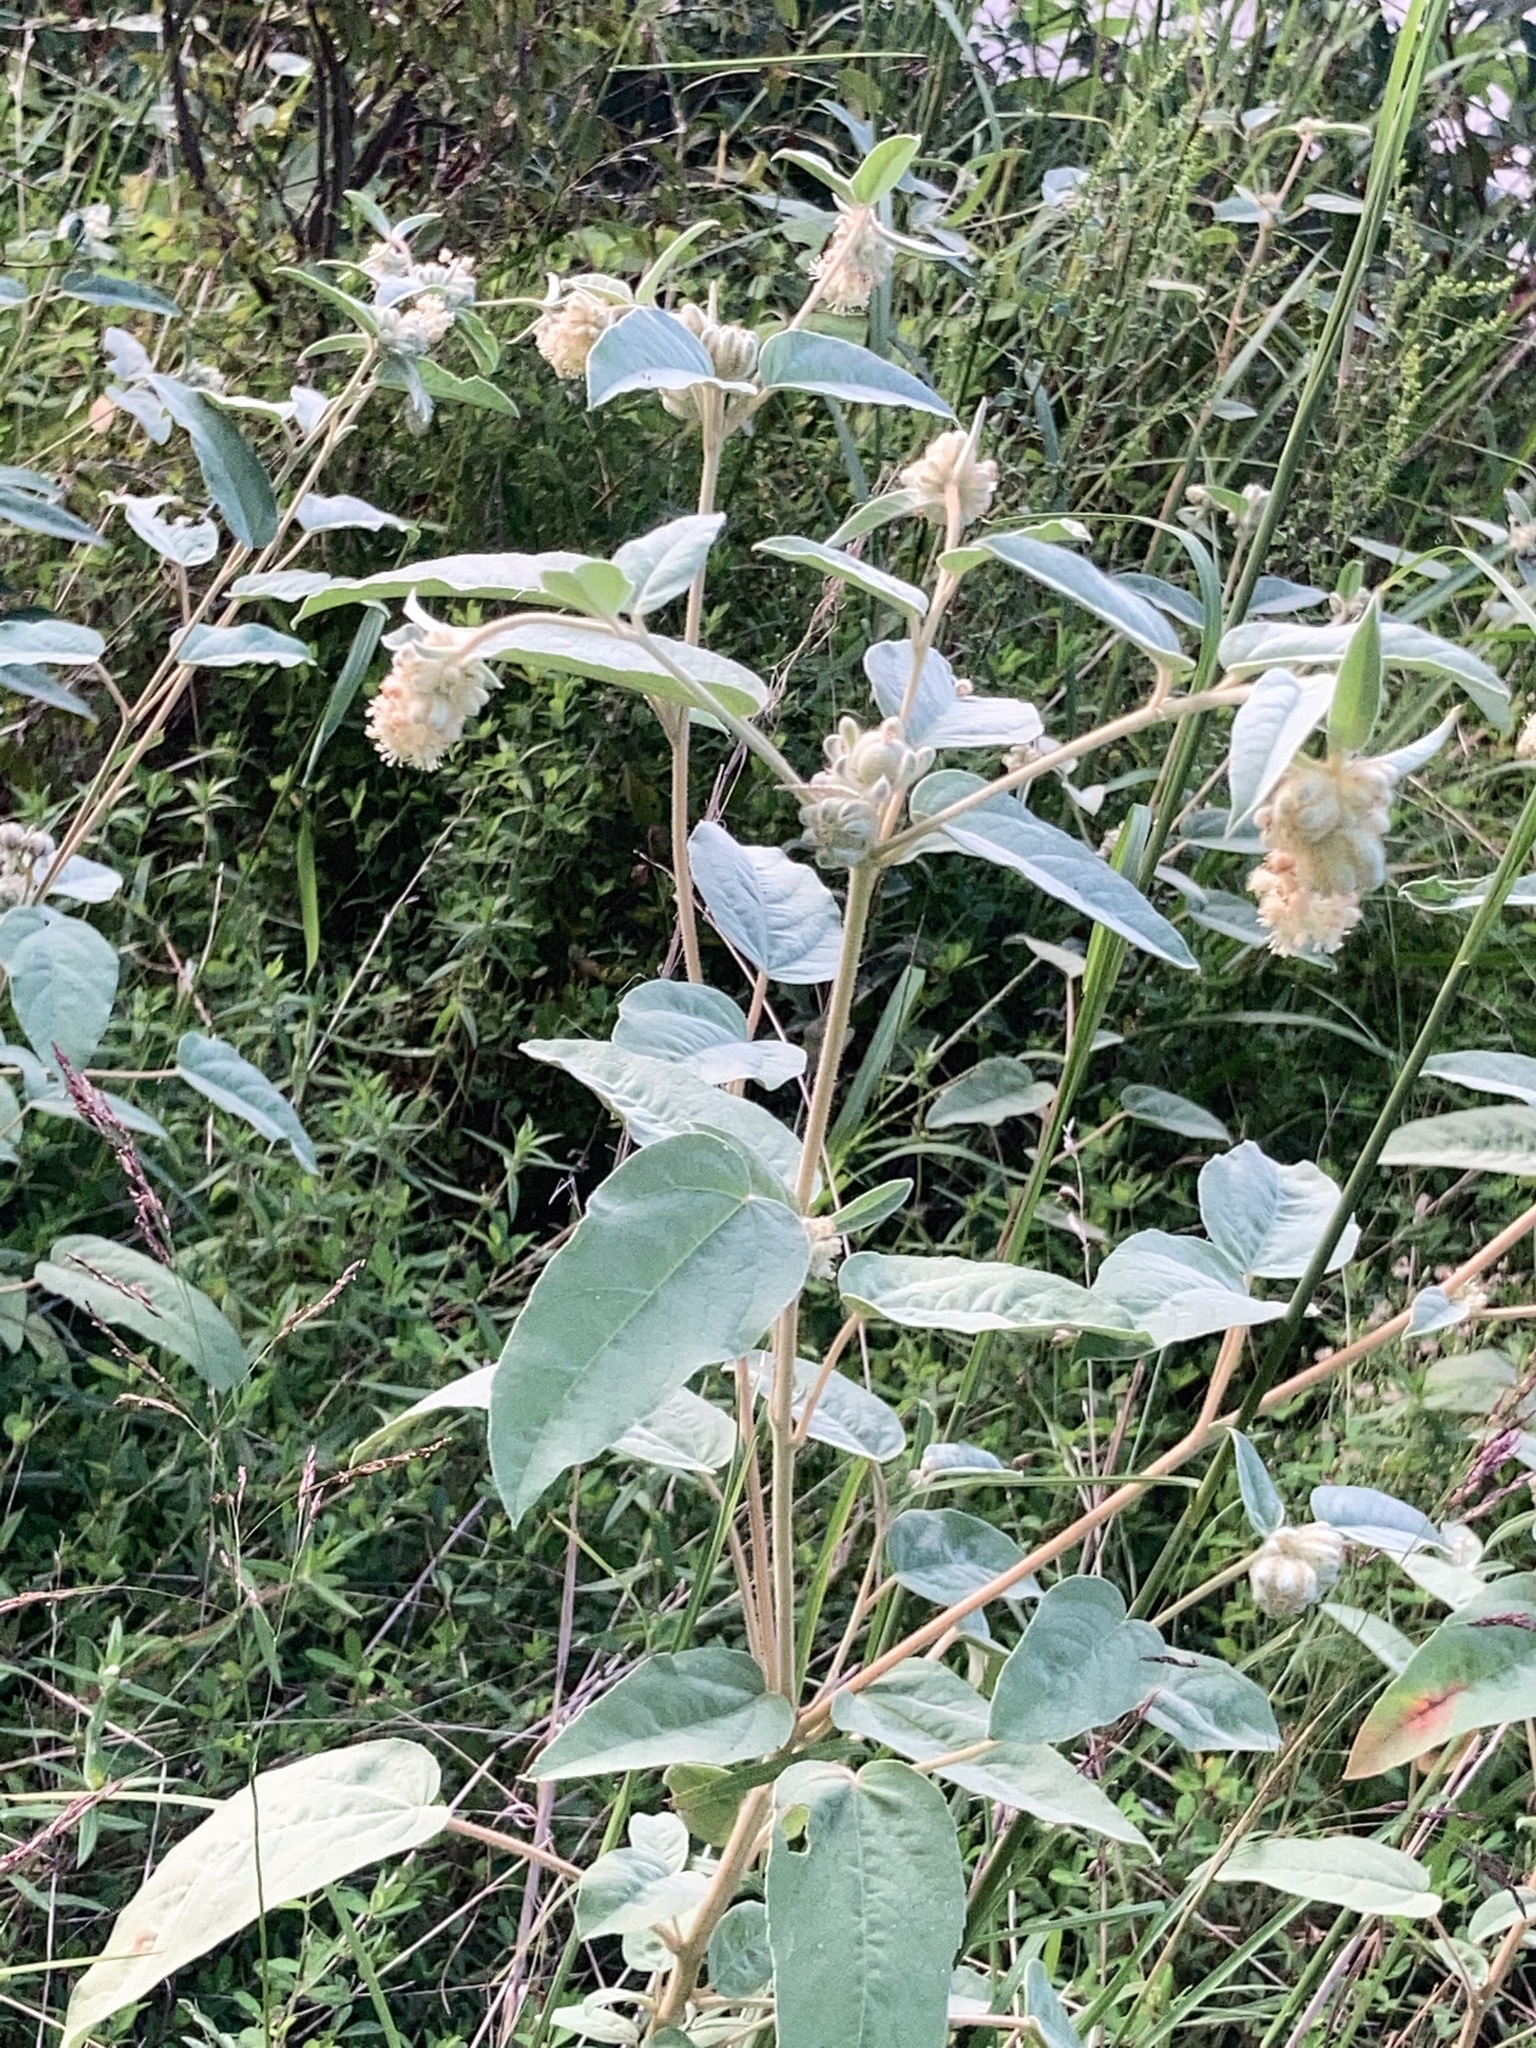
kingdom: Plantae
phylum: Tracheophyta
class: Magnoliopsida
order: Malpighiales
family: Euphorbiaceae
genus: Croton
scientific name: Croton lindheimeri
